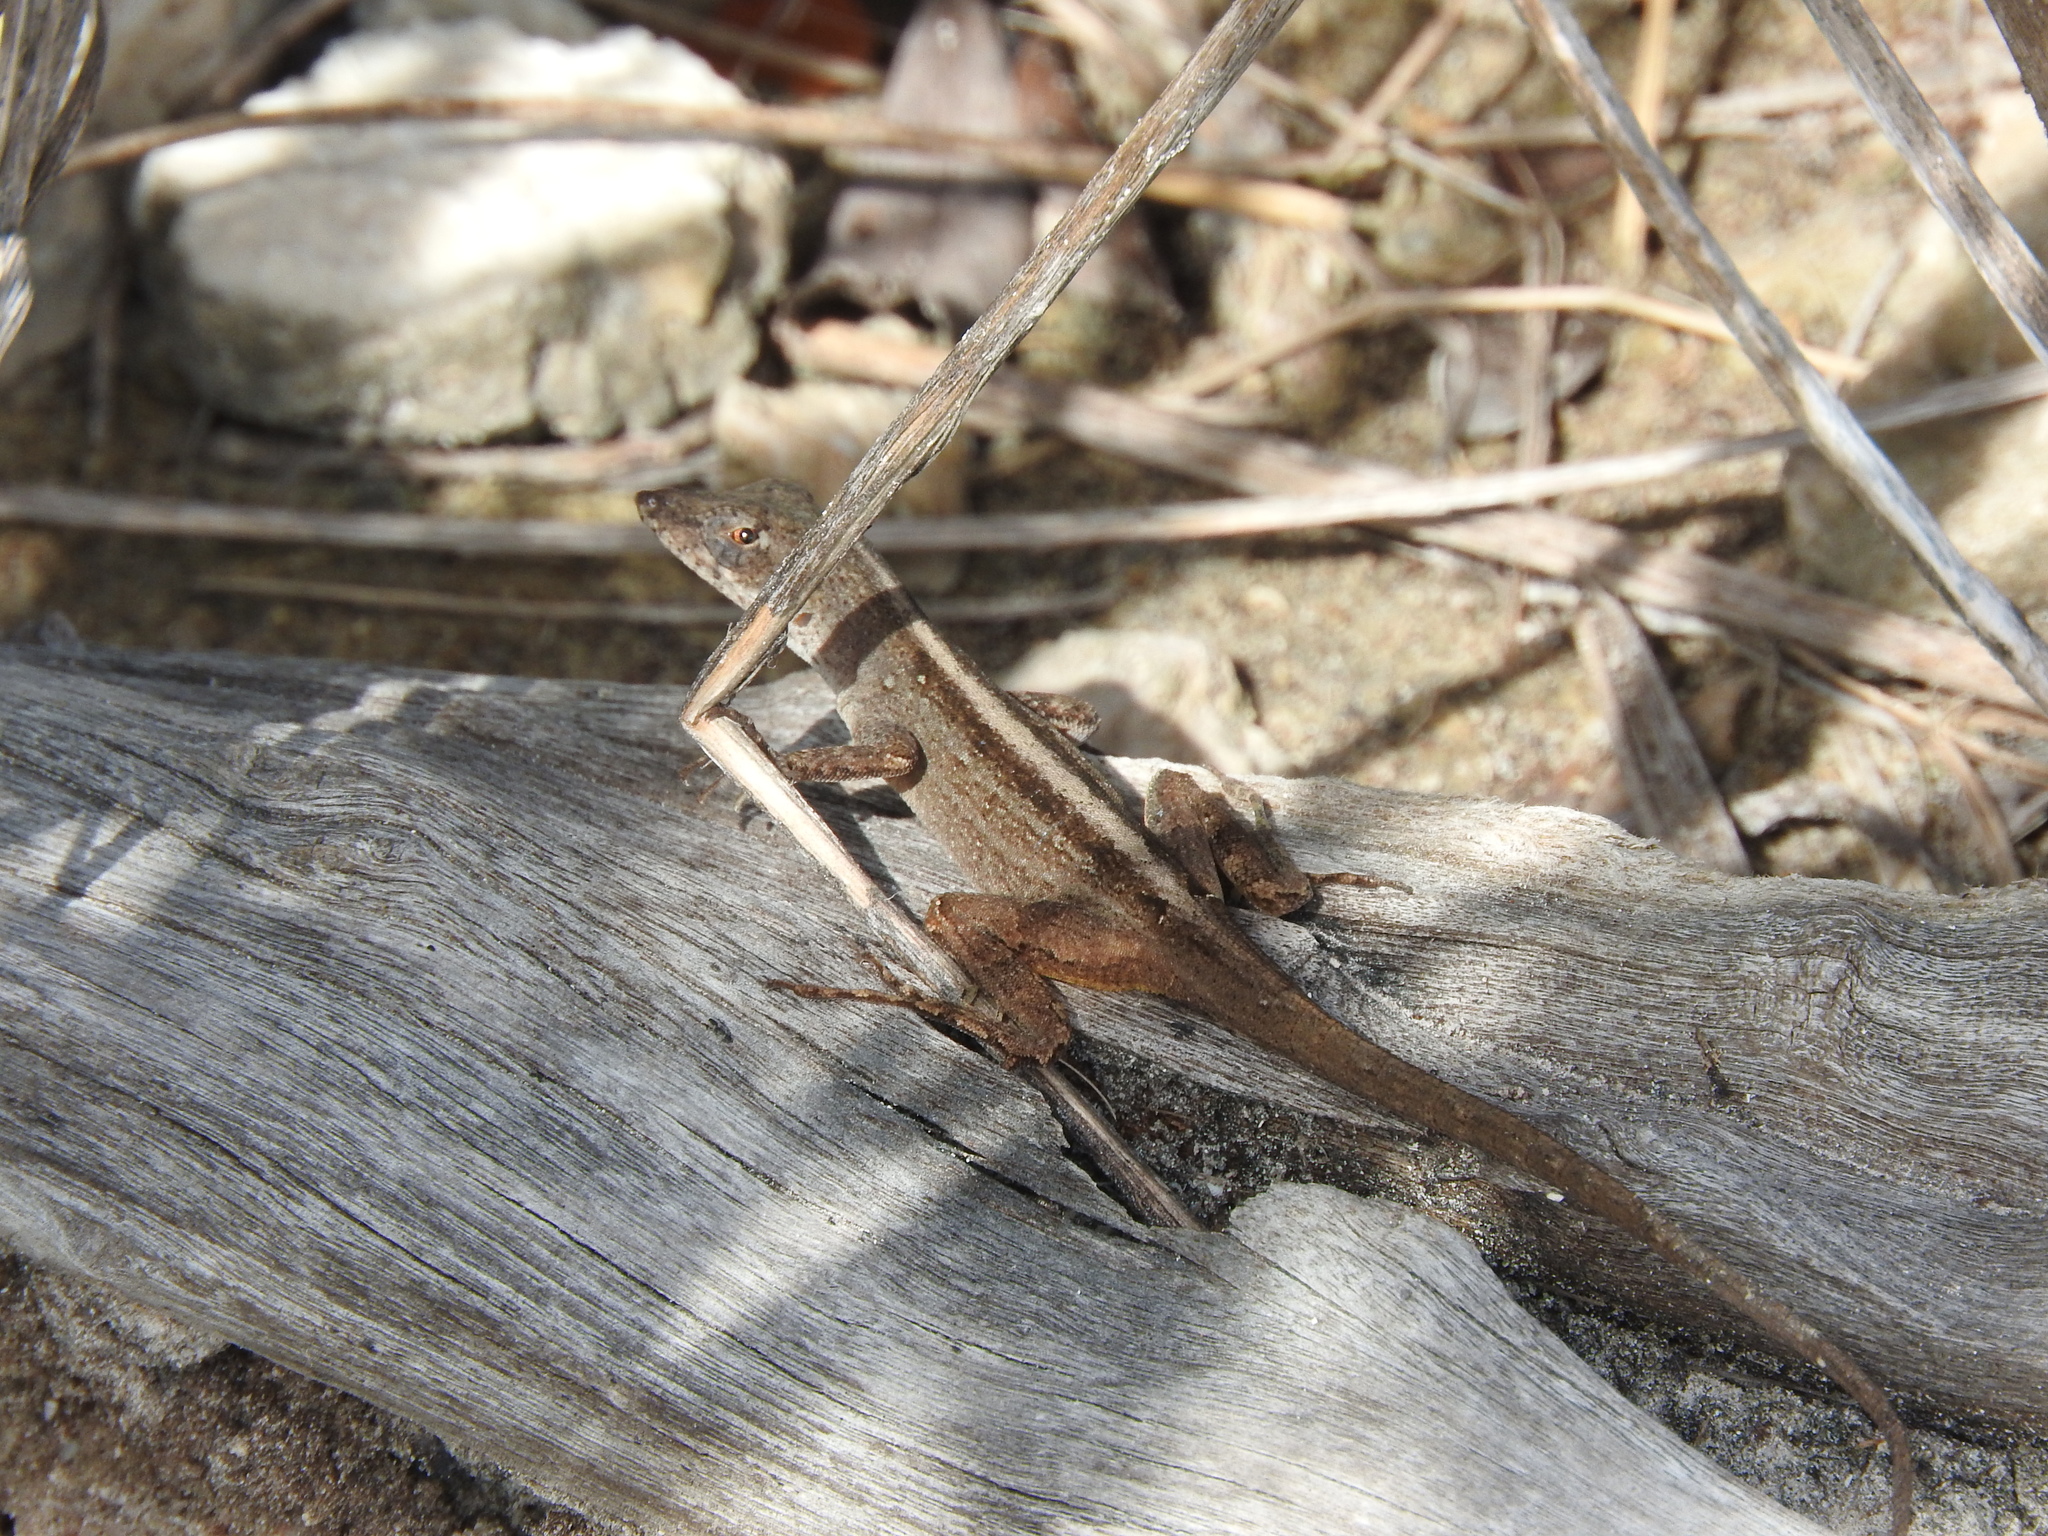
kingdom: Animalia
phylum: Chordata
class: Squamata
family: Dactyloidae
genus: Anolis
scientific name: Anolis sagrei
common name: Brown anole
